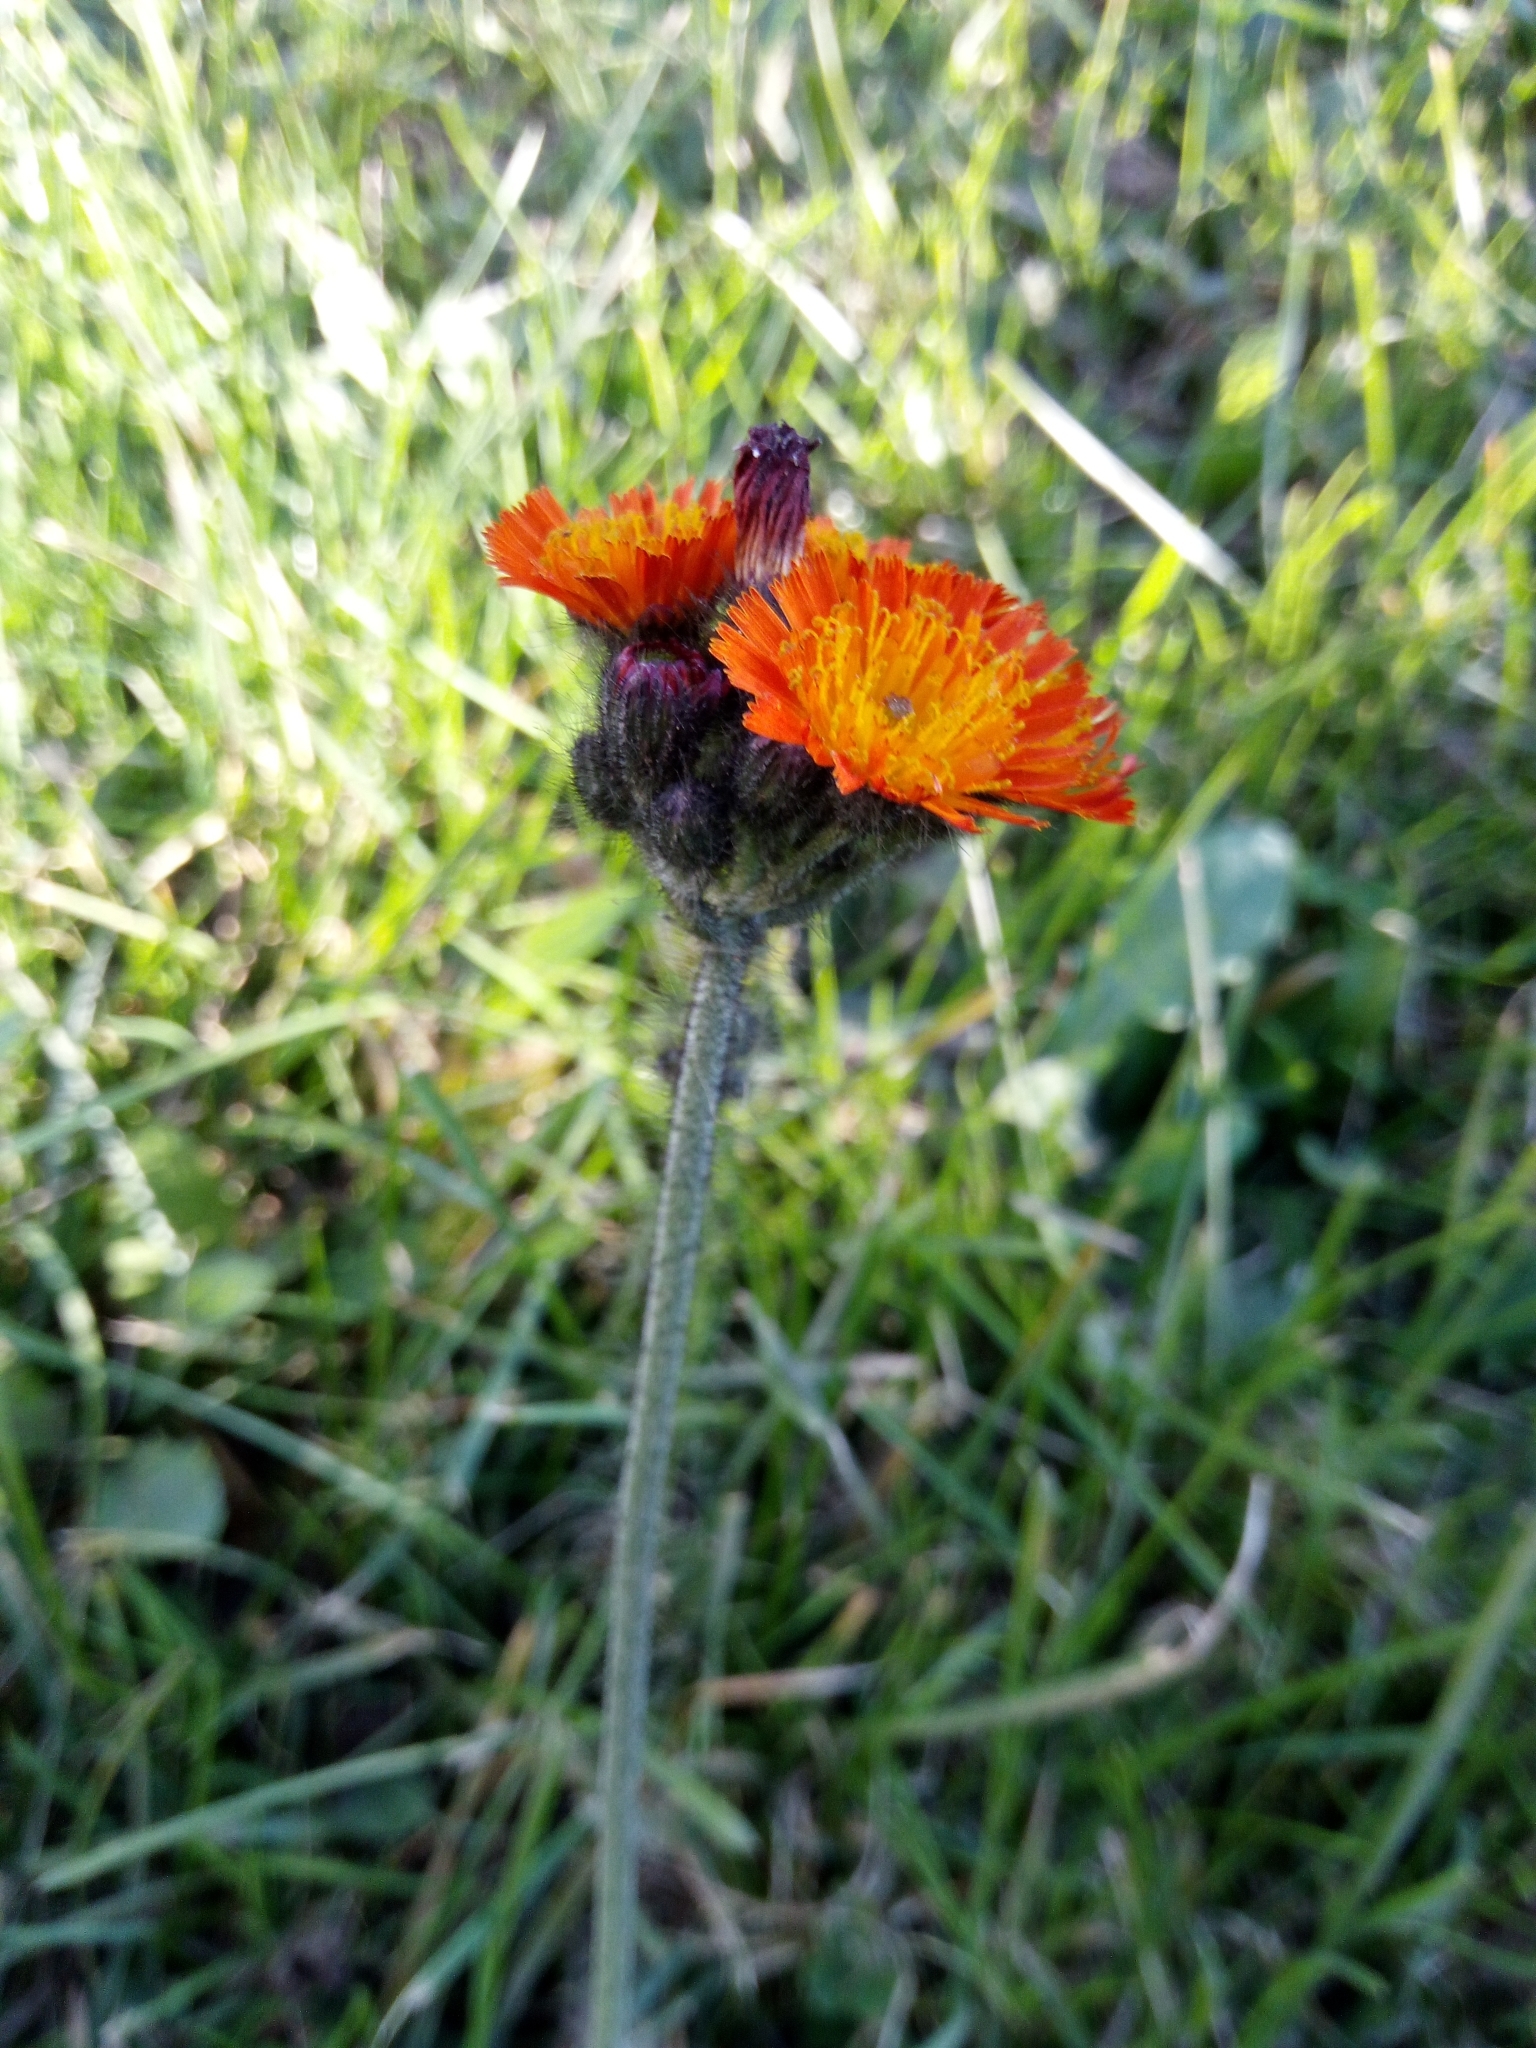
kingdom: Plantae
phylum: Tracheophyta
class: Magnoliopsida
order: Asterales
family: Asteraceae
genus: Pilosella
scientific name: Pilosella aurantiaca
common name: Fox-and-cubs
